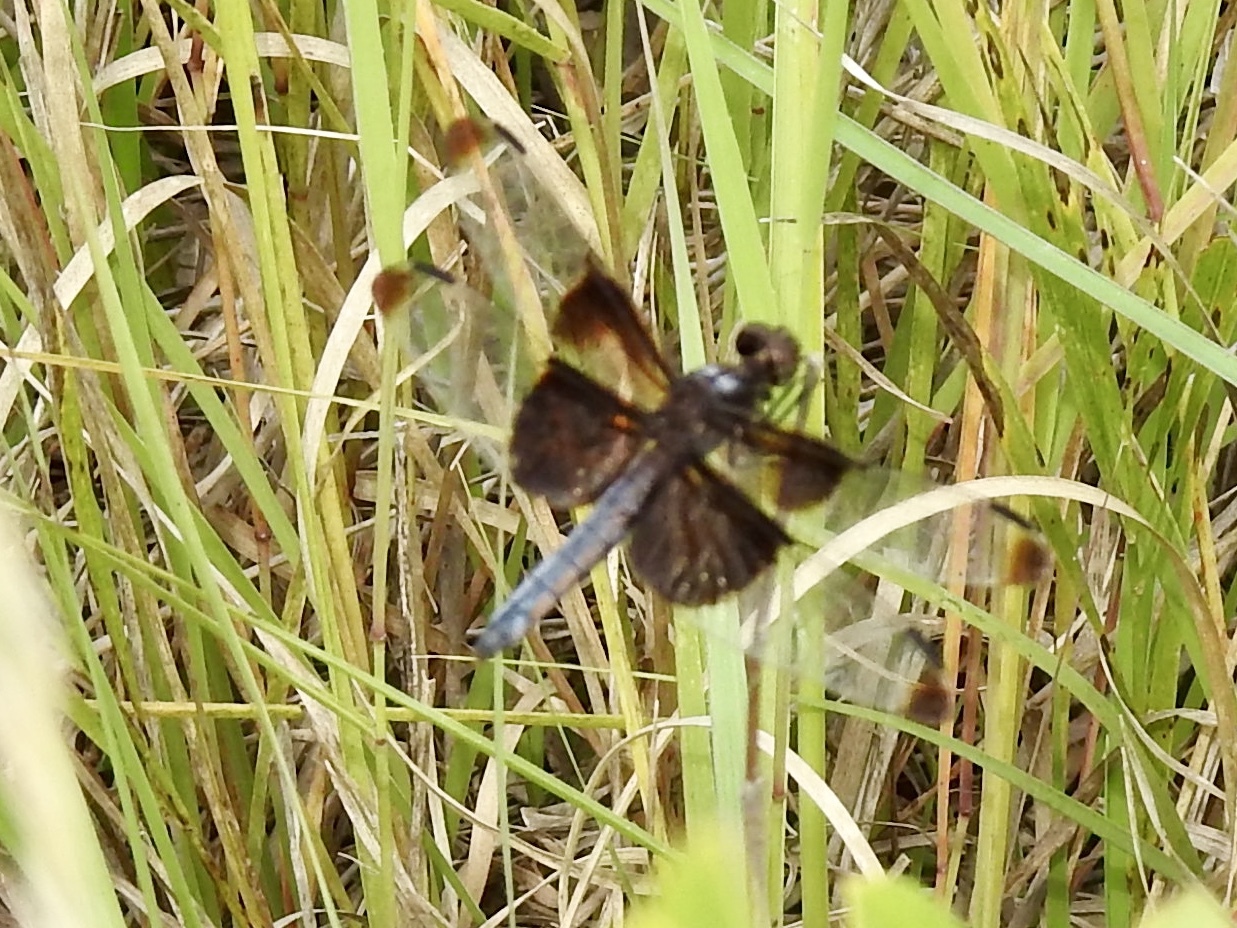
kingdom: Animalia
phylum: Arthropoda
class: Insecta
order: Odonata
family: Libellulidae
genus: Libellula
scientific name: Libellula luctuosa
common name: Widow skimmer
